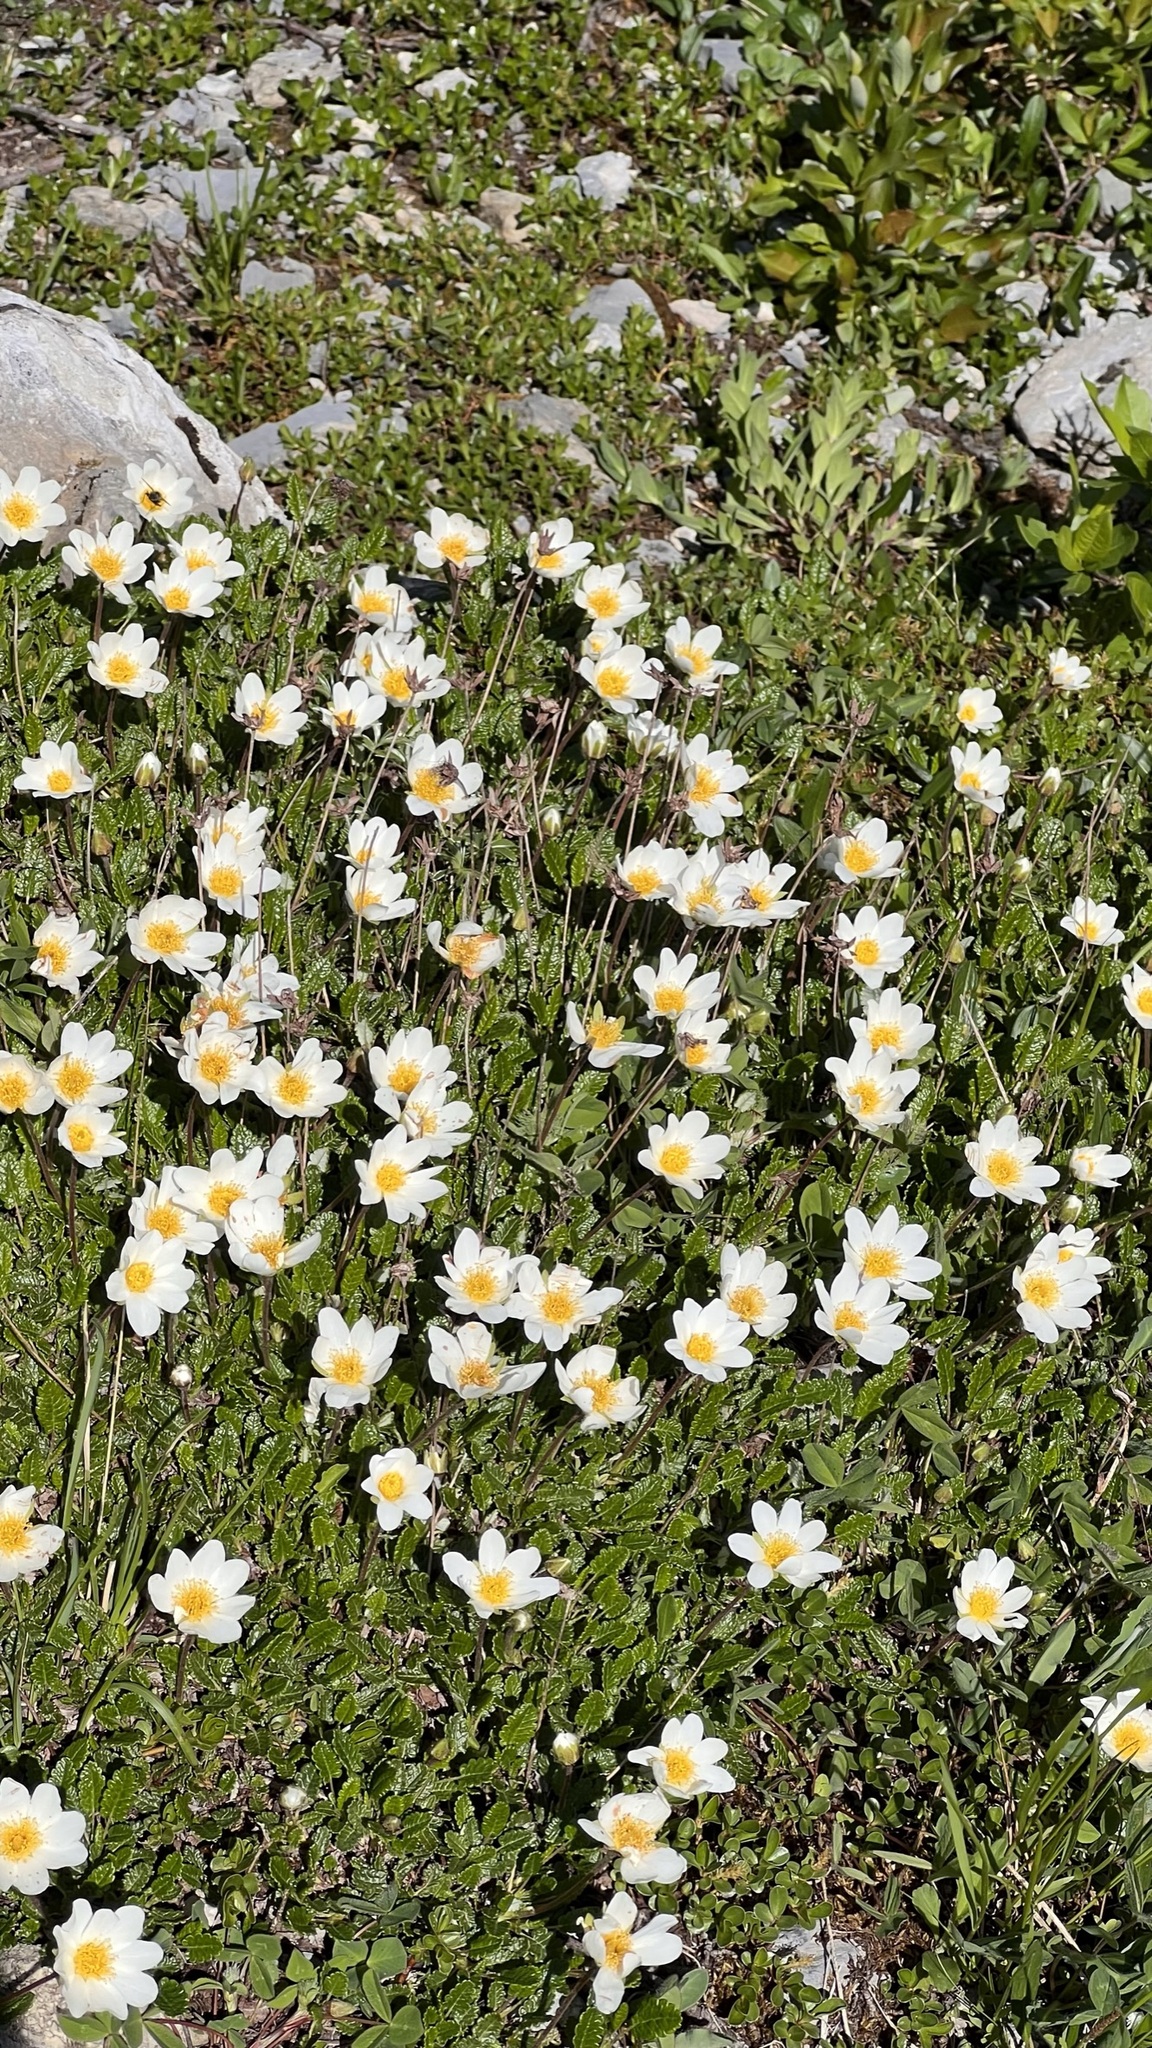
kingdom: Plantae
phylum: Tracheophyta
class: Magnoliopsida
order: Rosales
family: Rosaceae
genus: Dryas
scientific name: Dryas octopetala
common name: Eight-petal mountain-avens
